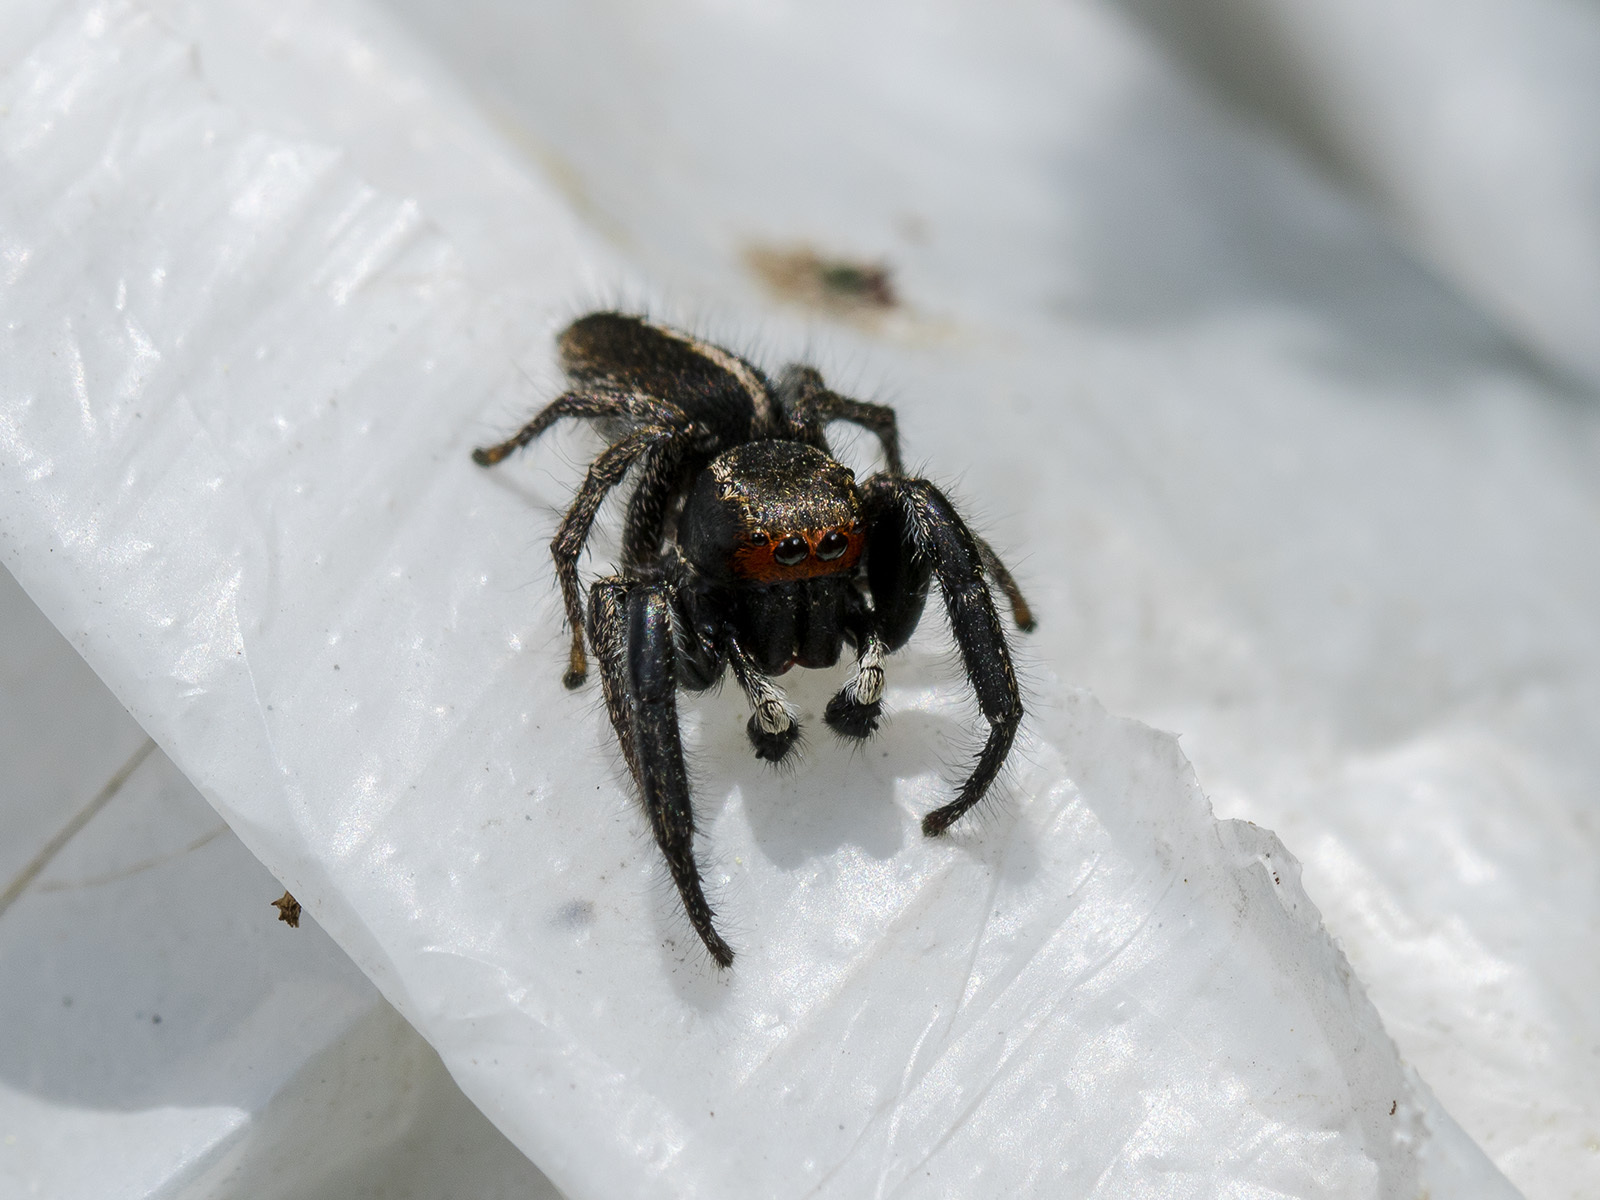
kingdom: Animalia
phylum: Arthropoda
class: Arachnida
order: Araneae
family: Salticidae
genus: Pellenes
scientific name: Pellenes seriatus
